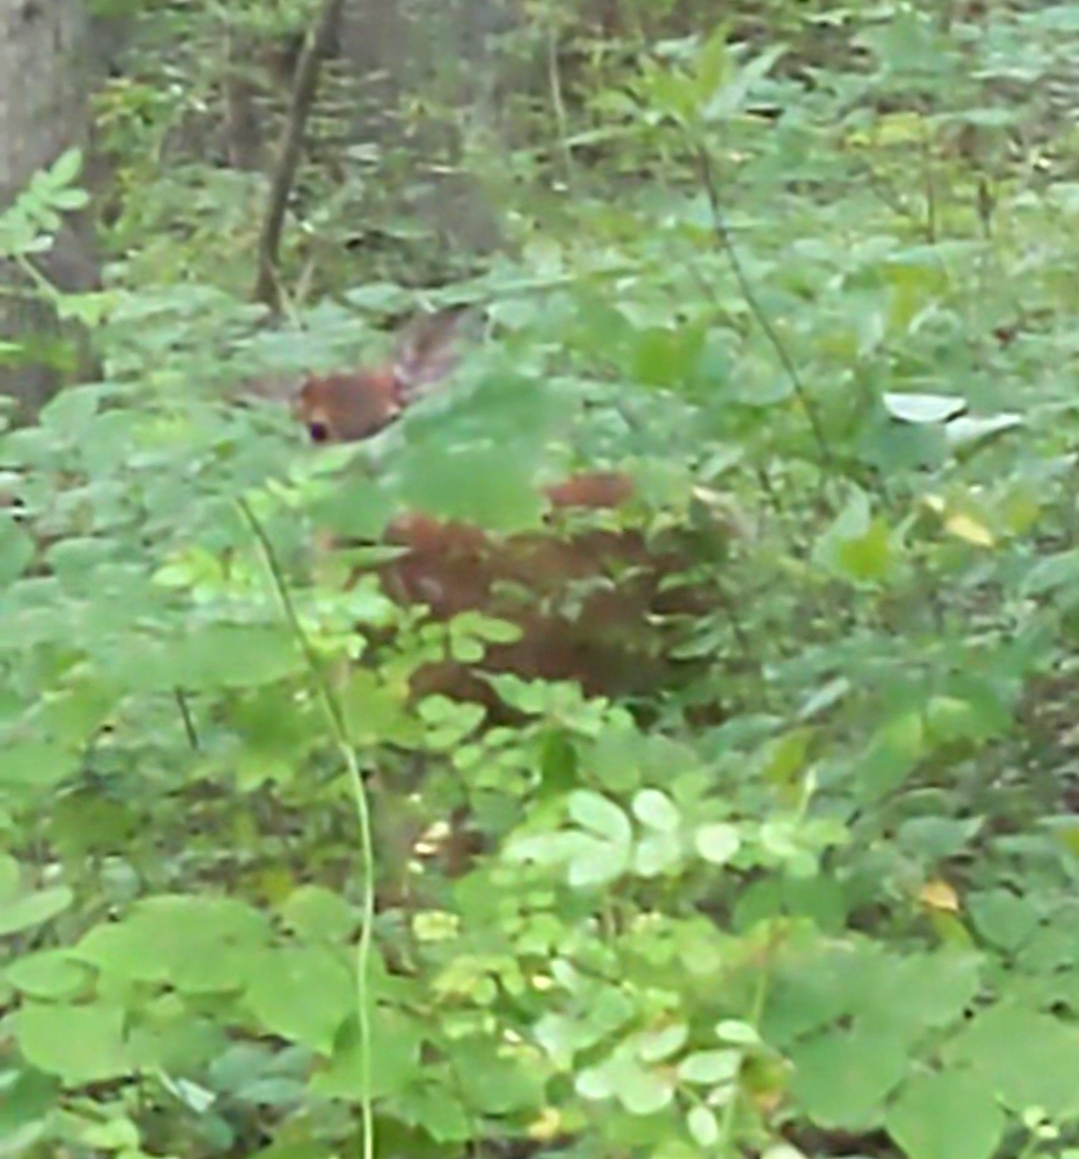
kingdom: Animalia
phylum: Chordata
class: Mammalia
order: Artiodactyla
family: Cervidae
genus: Odocoileus
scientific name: Odocoileus virginianus
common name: White-tailed deer
